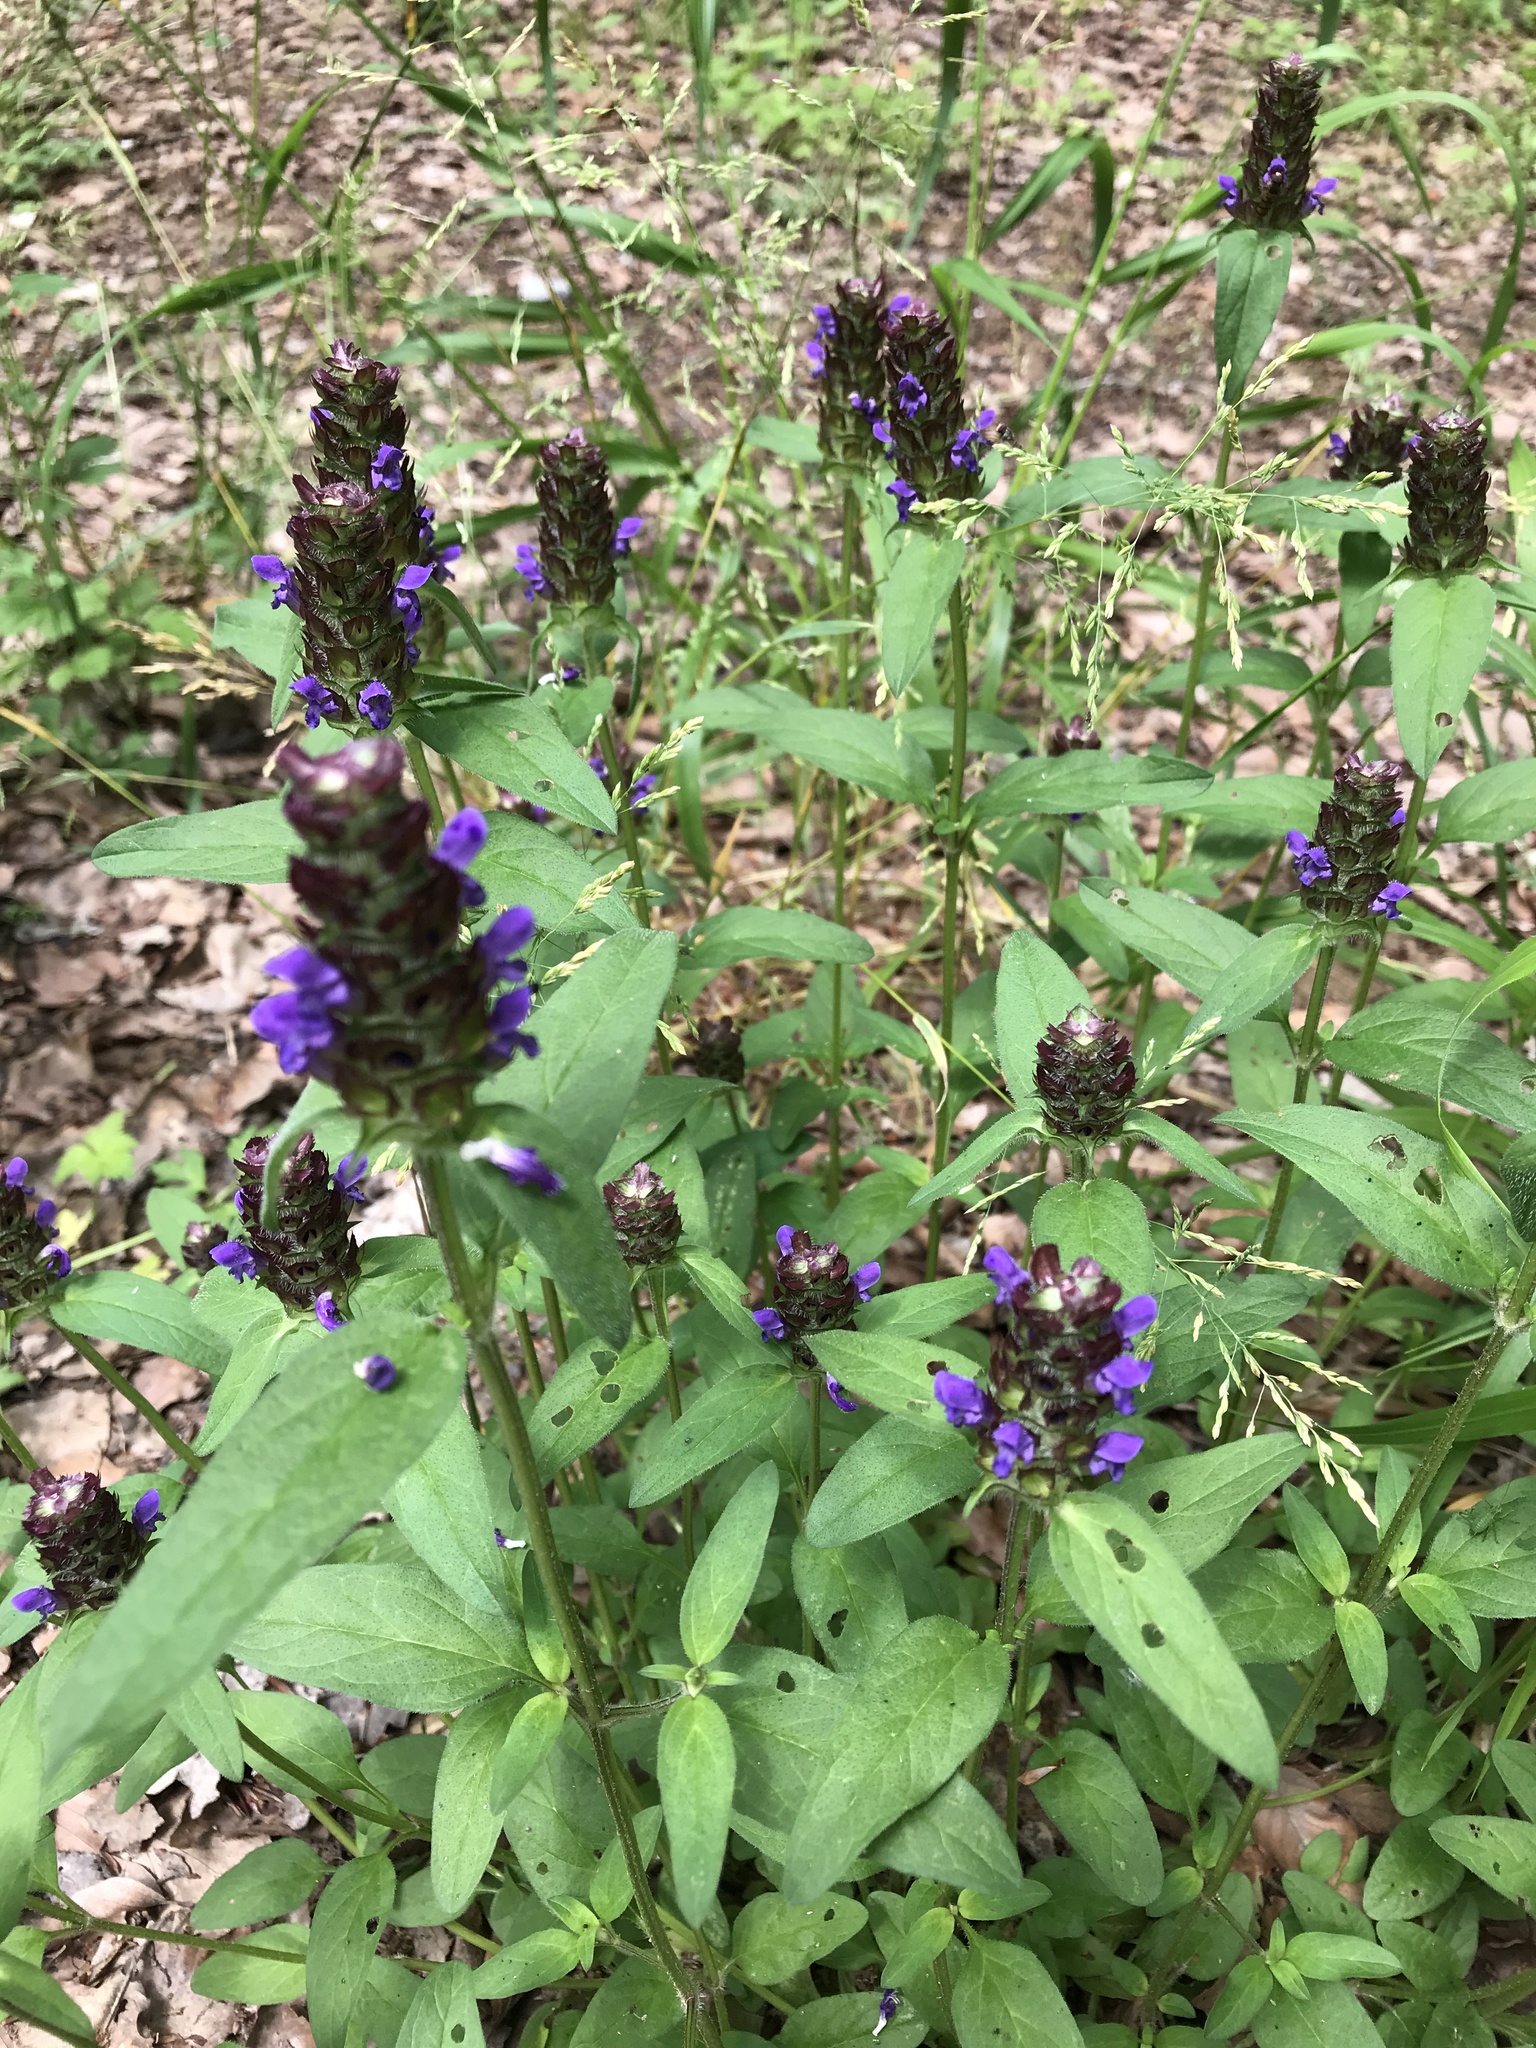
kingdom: Plantae
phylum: Tracheophyta
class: Magnoliopsida
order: Lamiales
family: Lamiaceae
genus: Prunella
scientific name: Prunella vulgaris
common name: Heal-all
